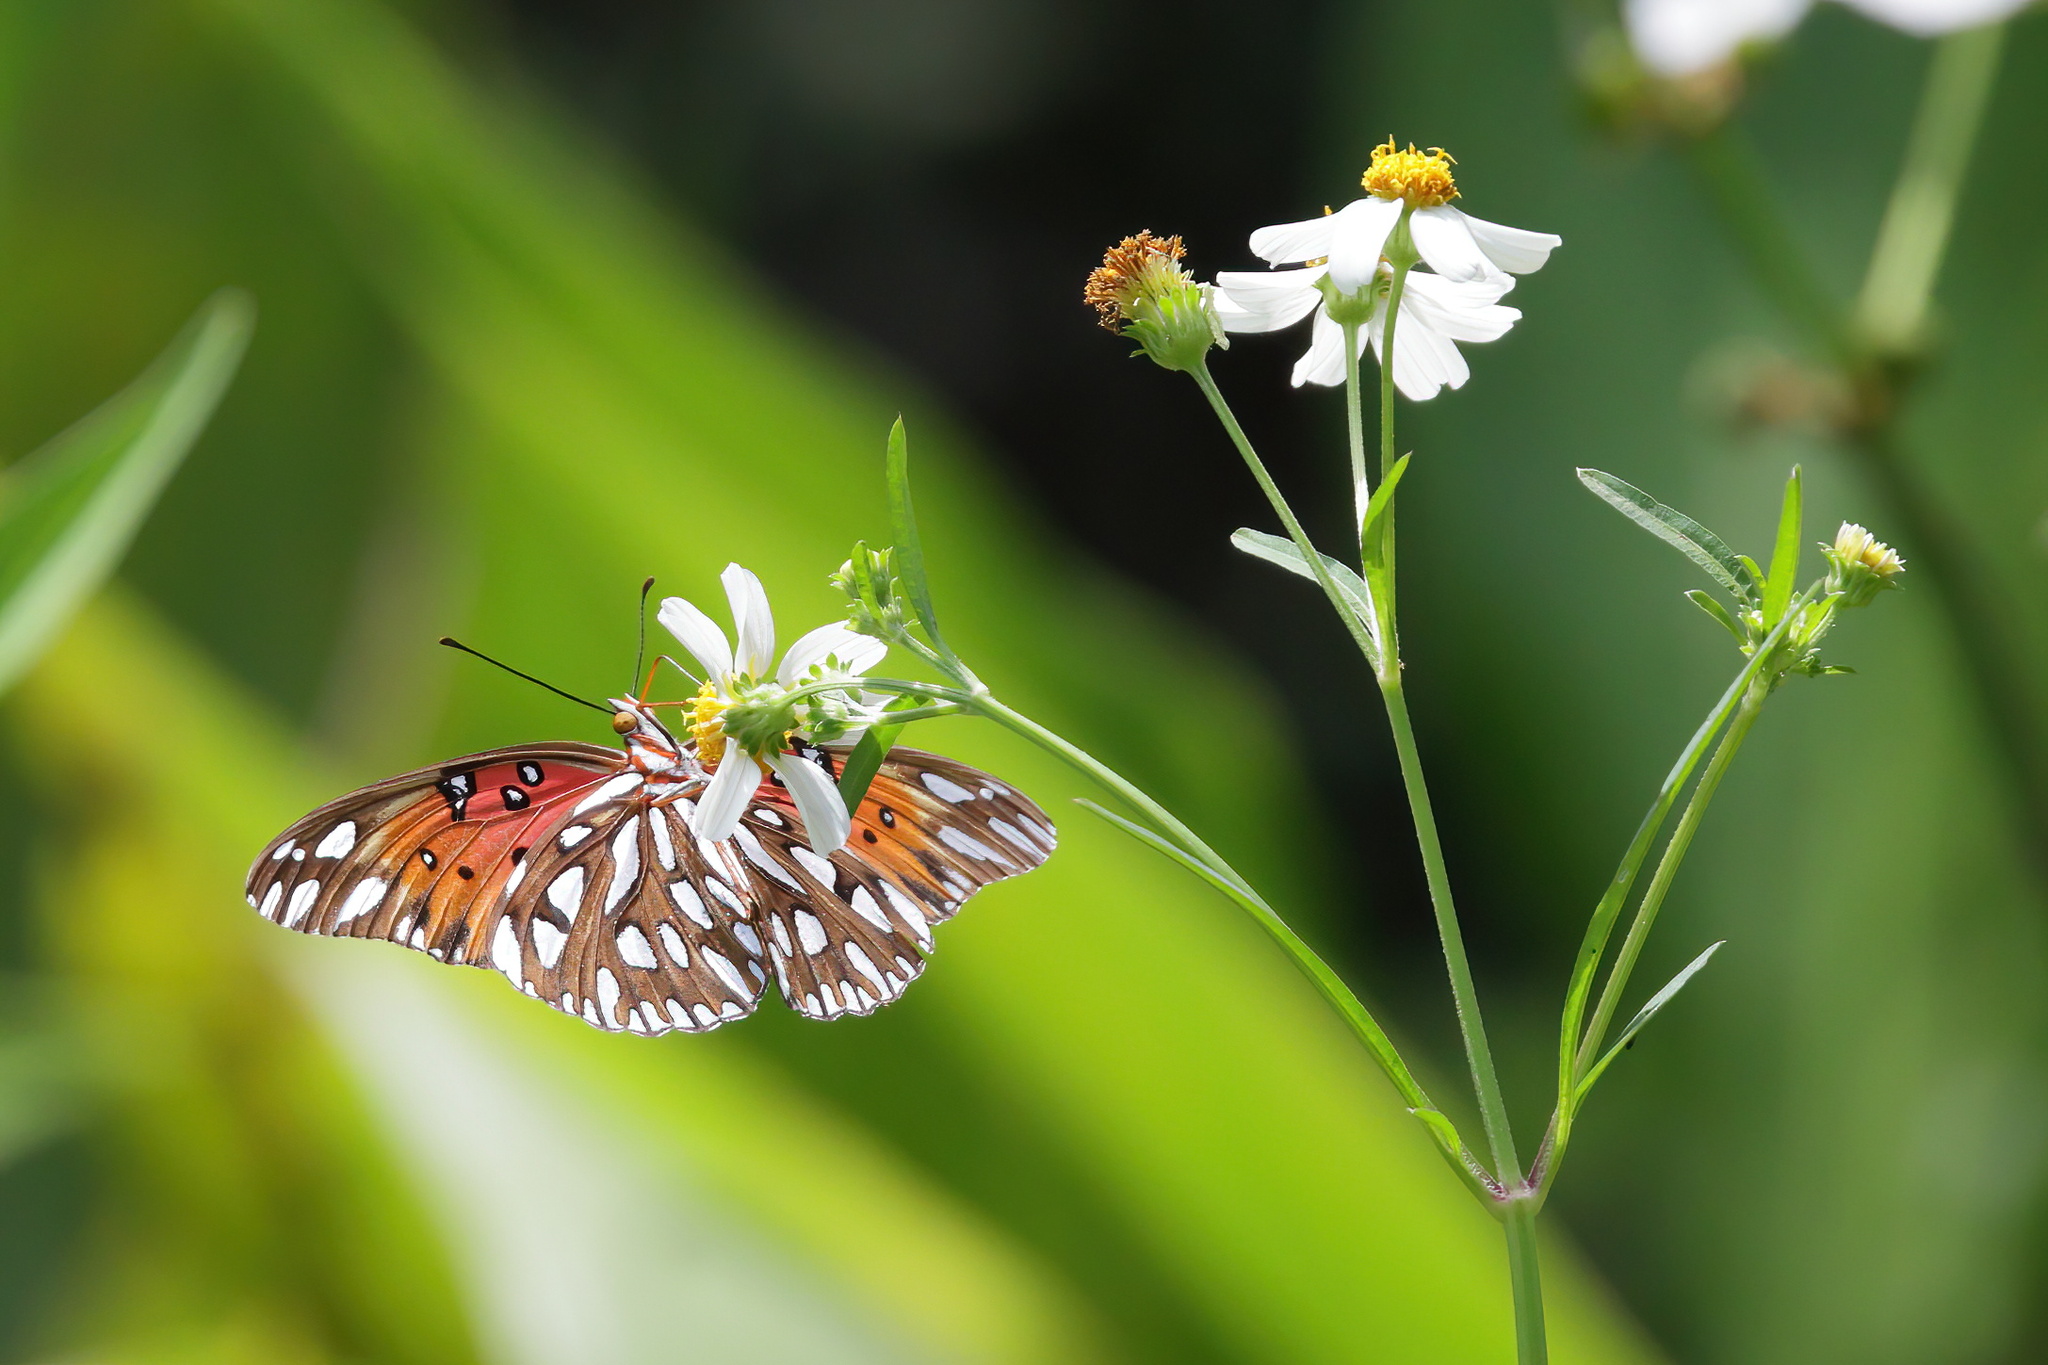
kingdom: Animalia
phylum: Arthropoda
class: Insecta
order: Lepidoptera
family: Nymphalidae
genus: Dione
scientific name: Dione vanillae
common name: Gulf fritillary
